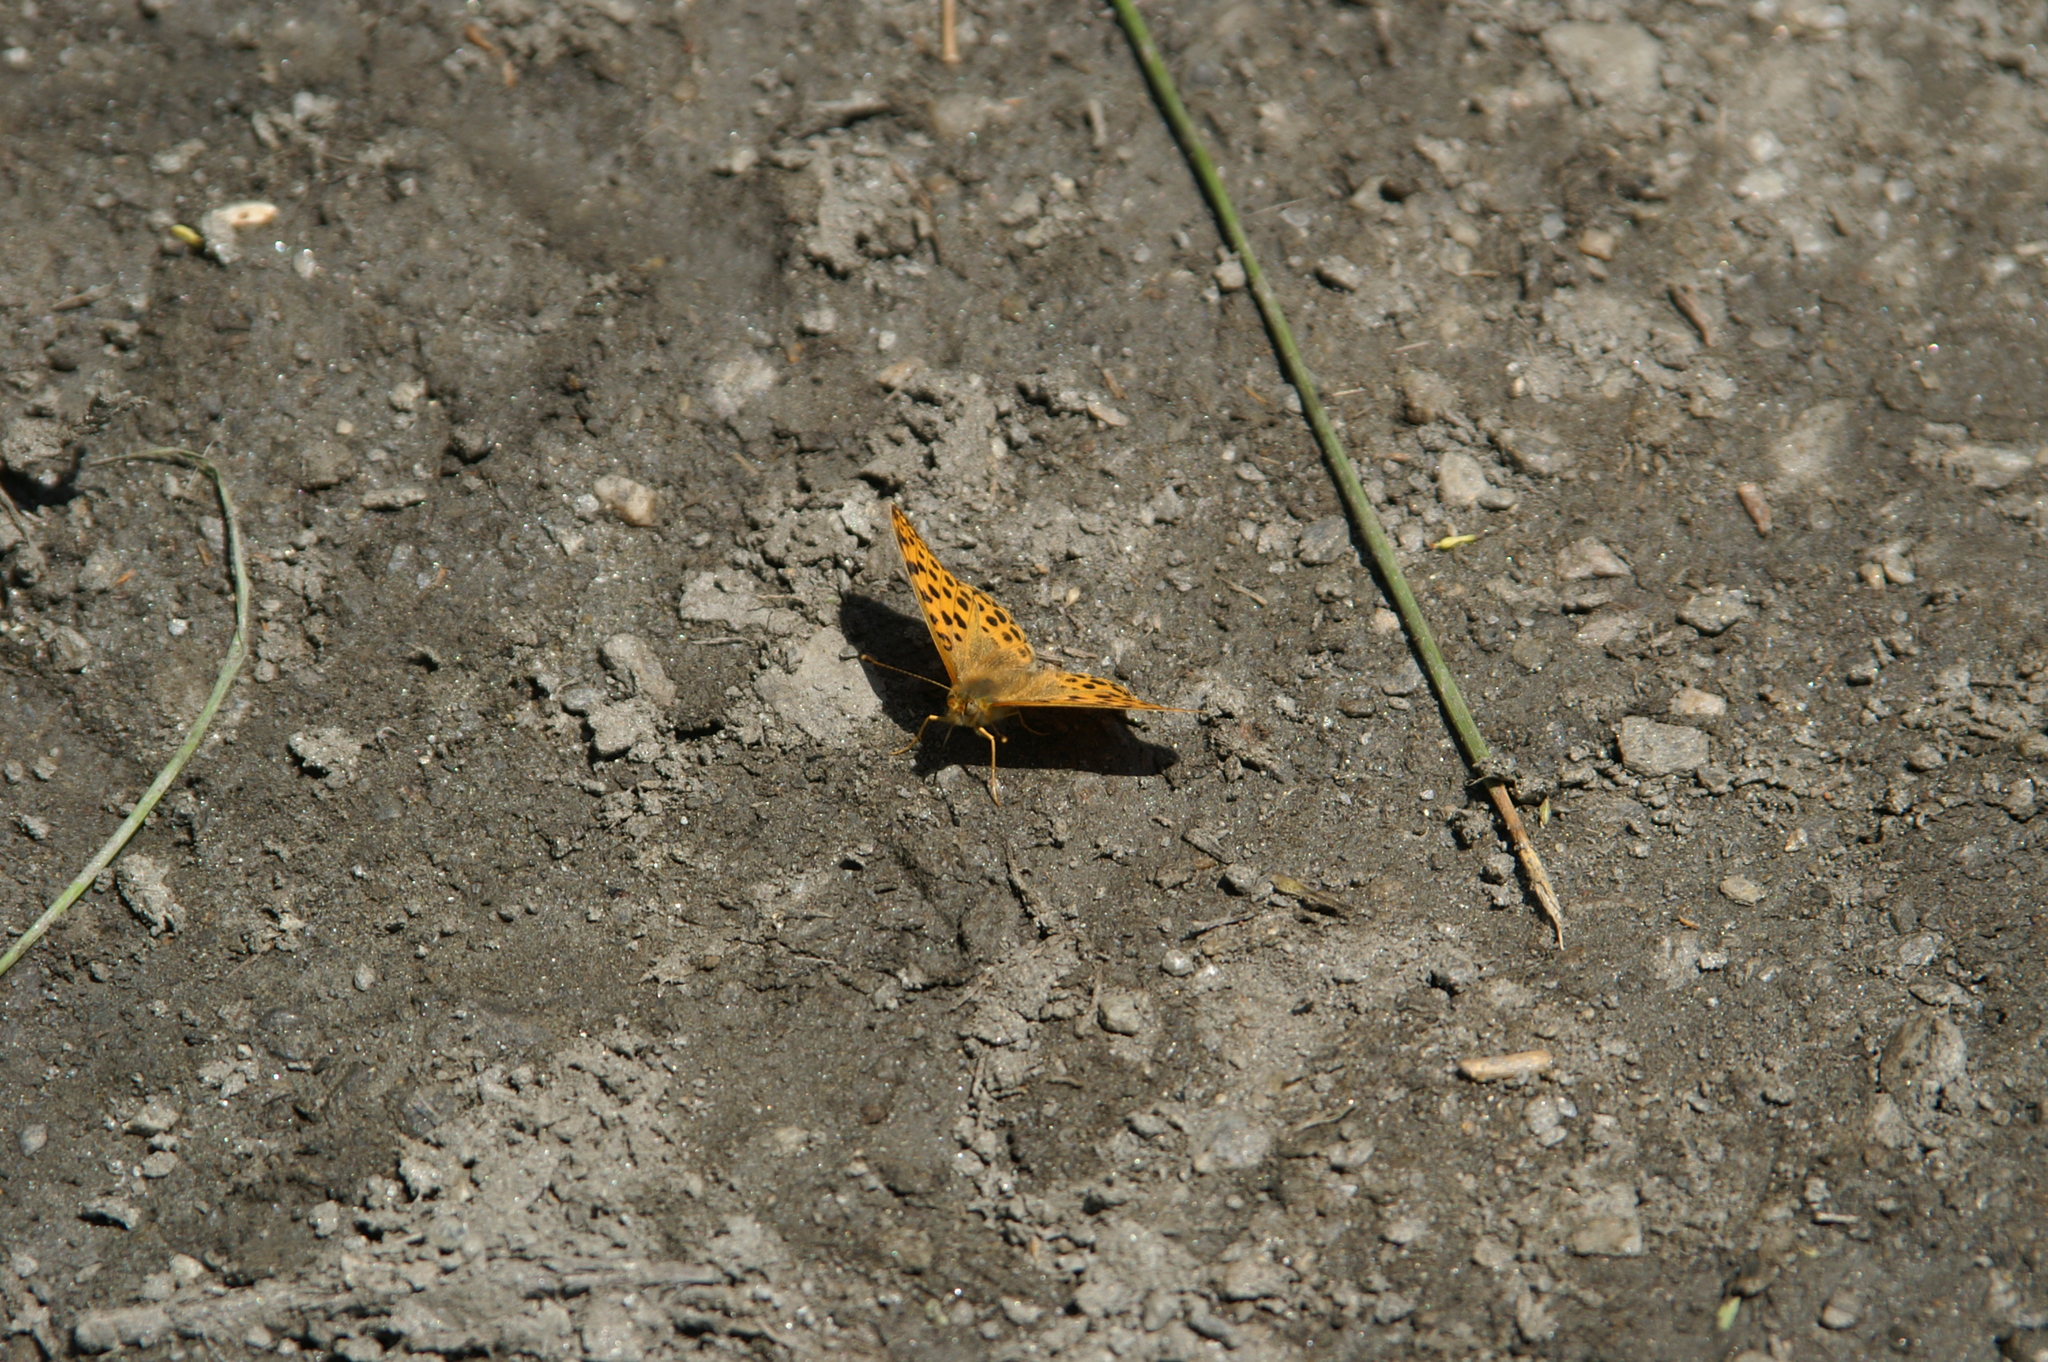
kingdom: Animalia
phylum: Arthropoda
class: Insecta
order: Lepidoptera
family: Nymphalidae
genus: Issoria
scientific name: Issoria lathonia
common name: Queen of spain fritillary
